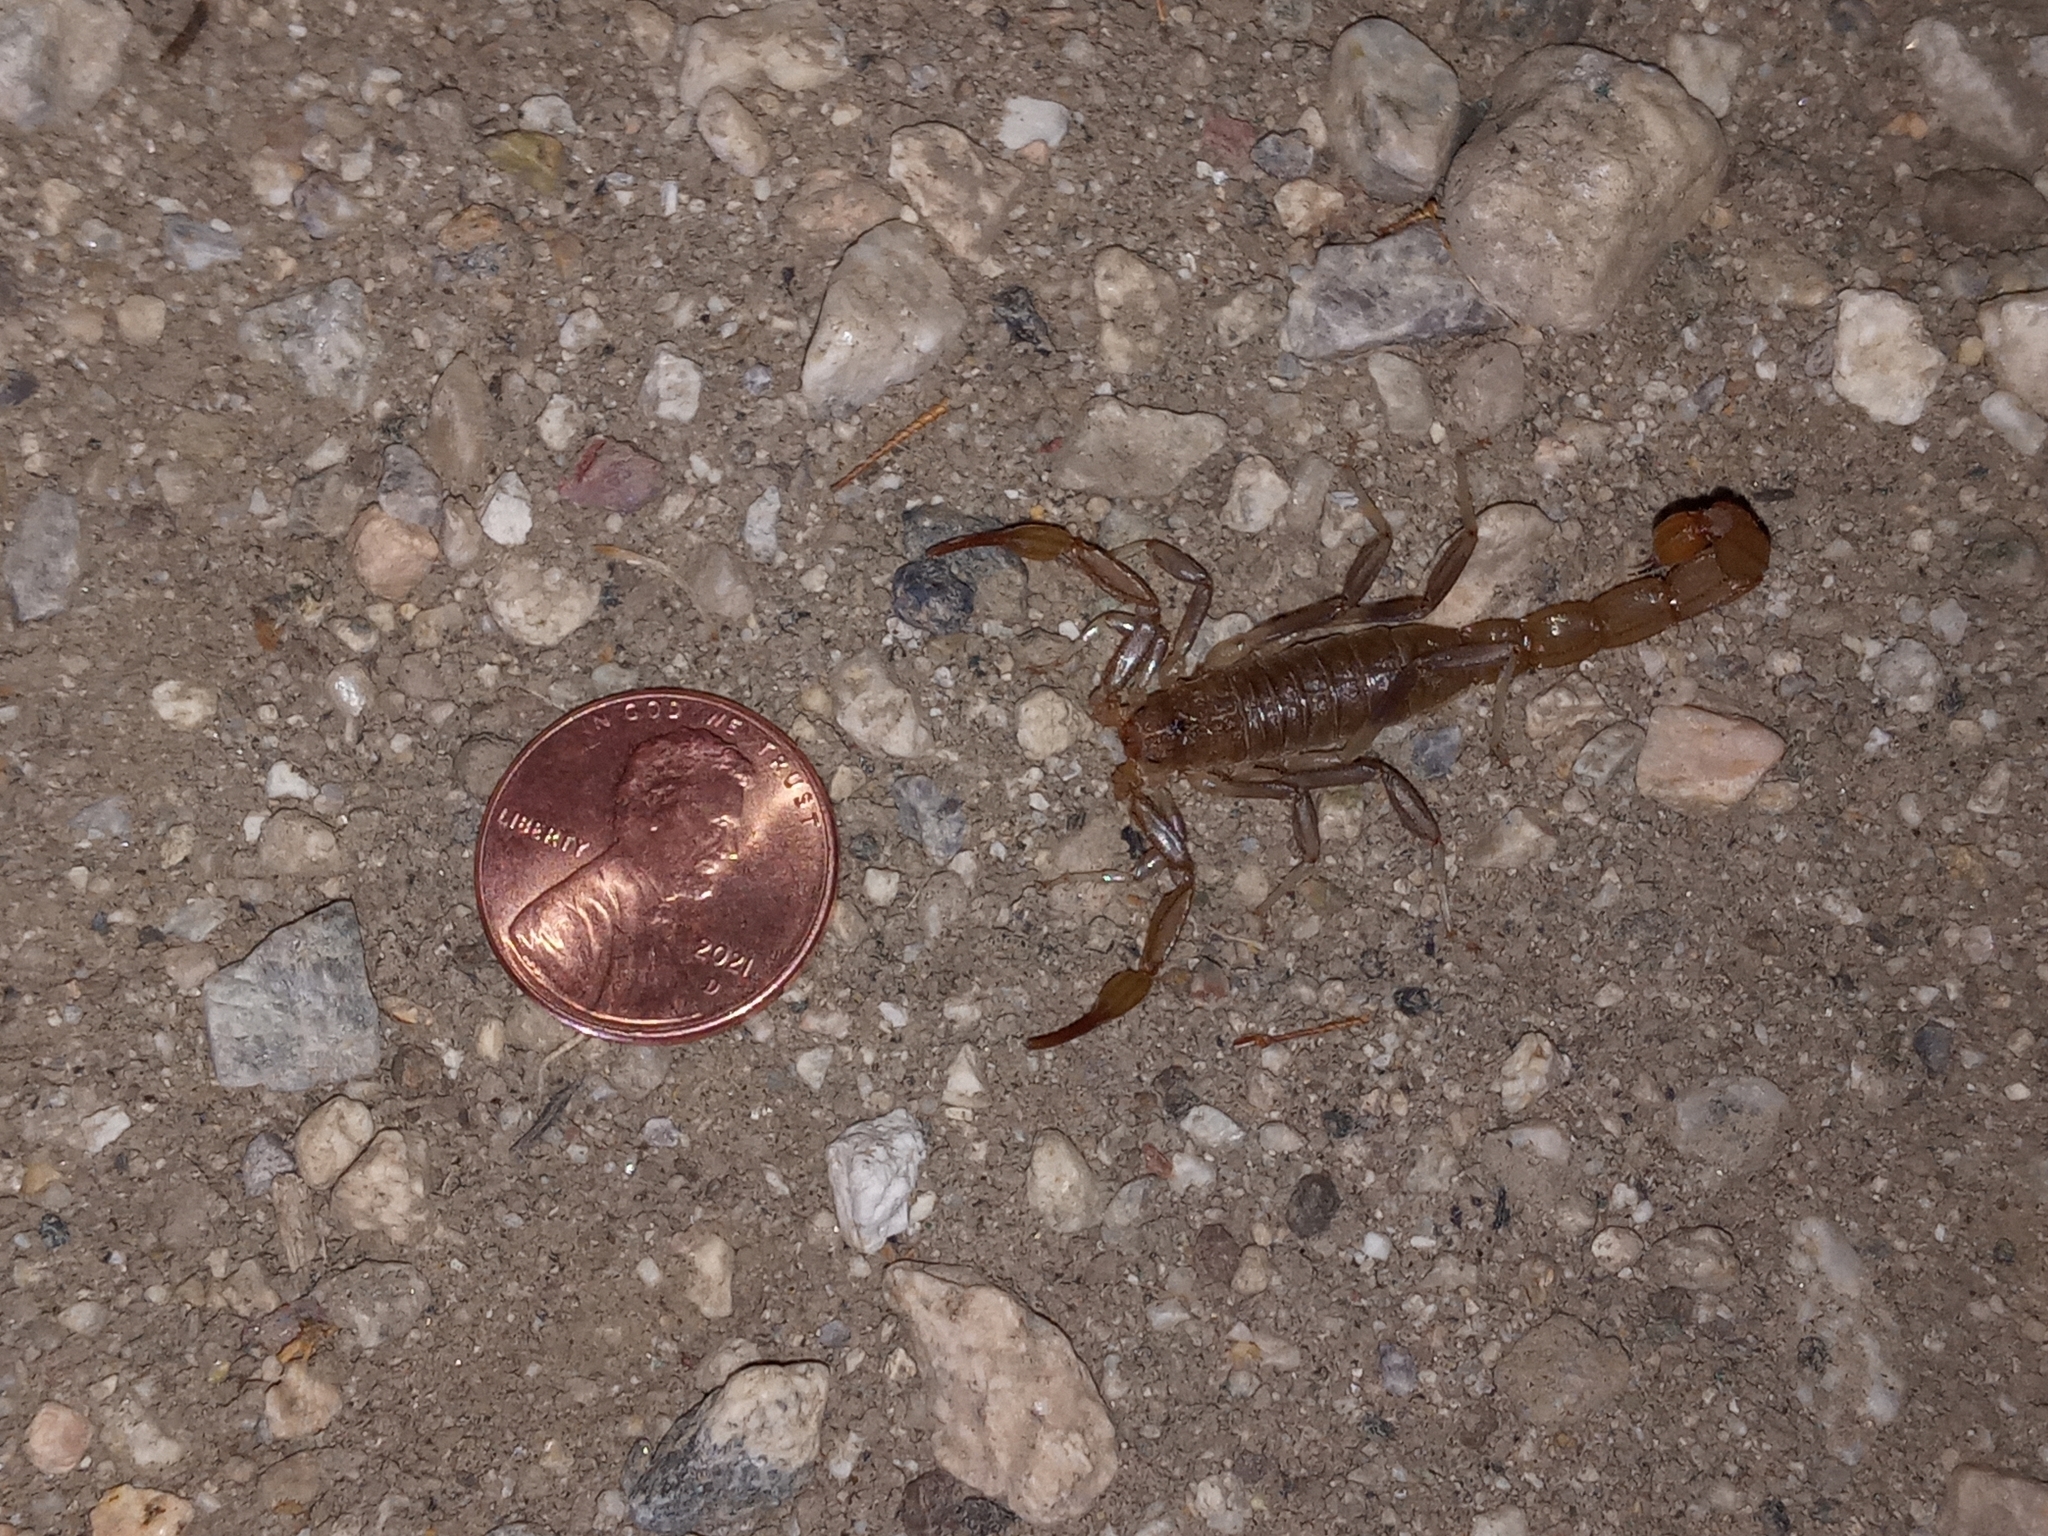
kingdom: Animalia
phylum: Arthropoda
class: Arachnida
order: Scorpiones
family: Vaejovidae
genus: Paravaejovis
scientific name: Paravaejovis puritanus
